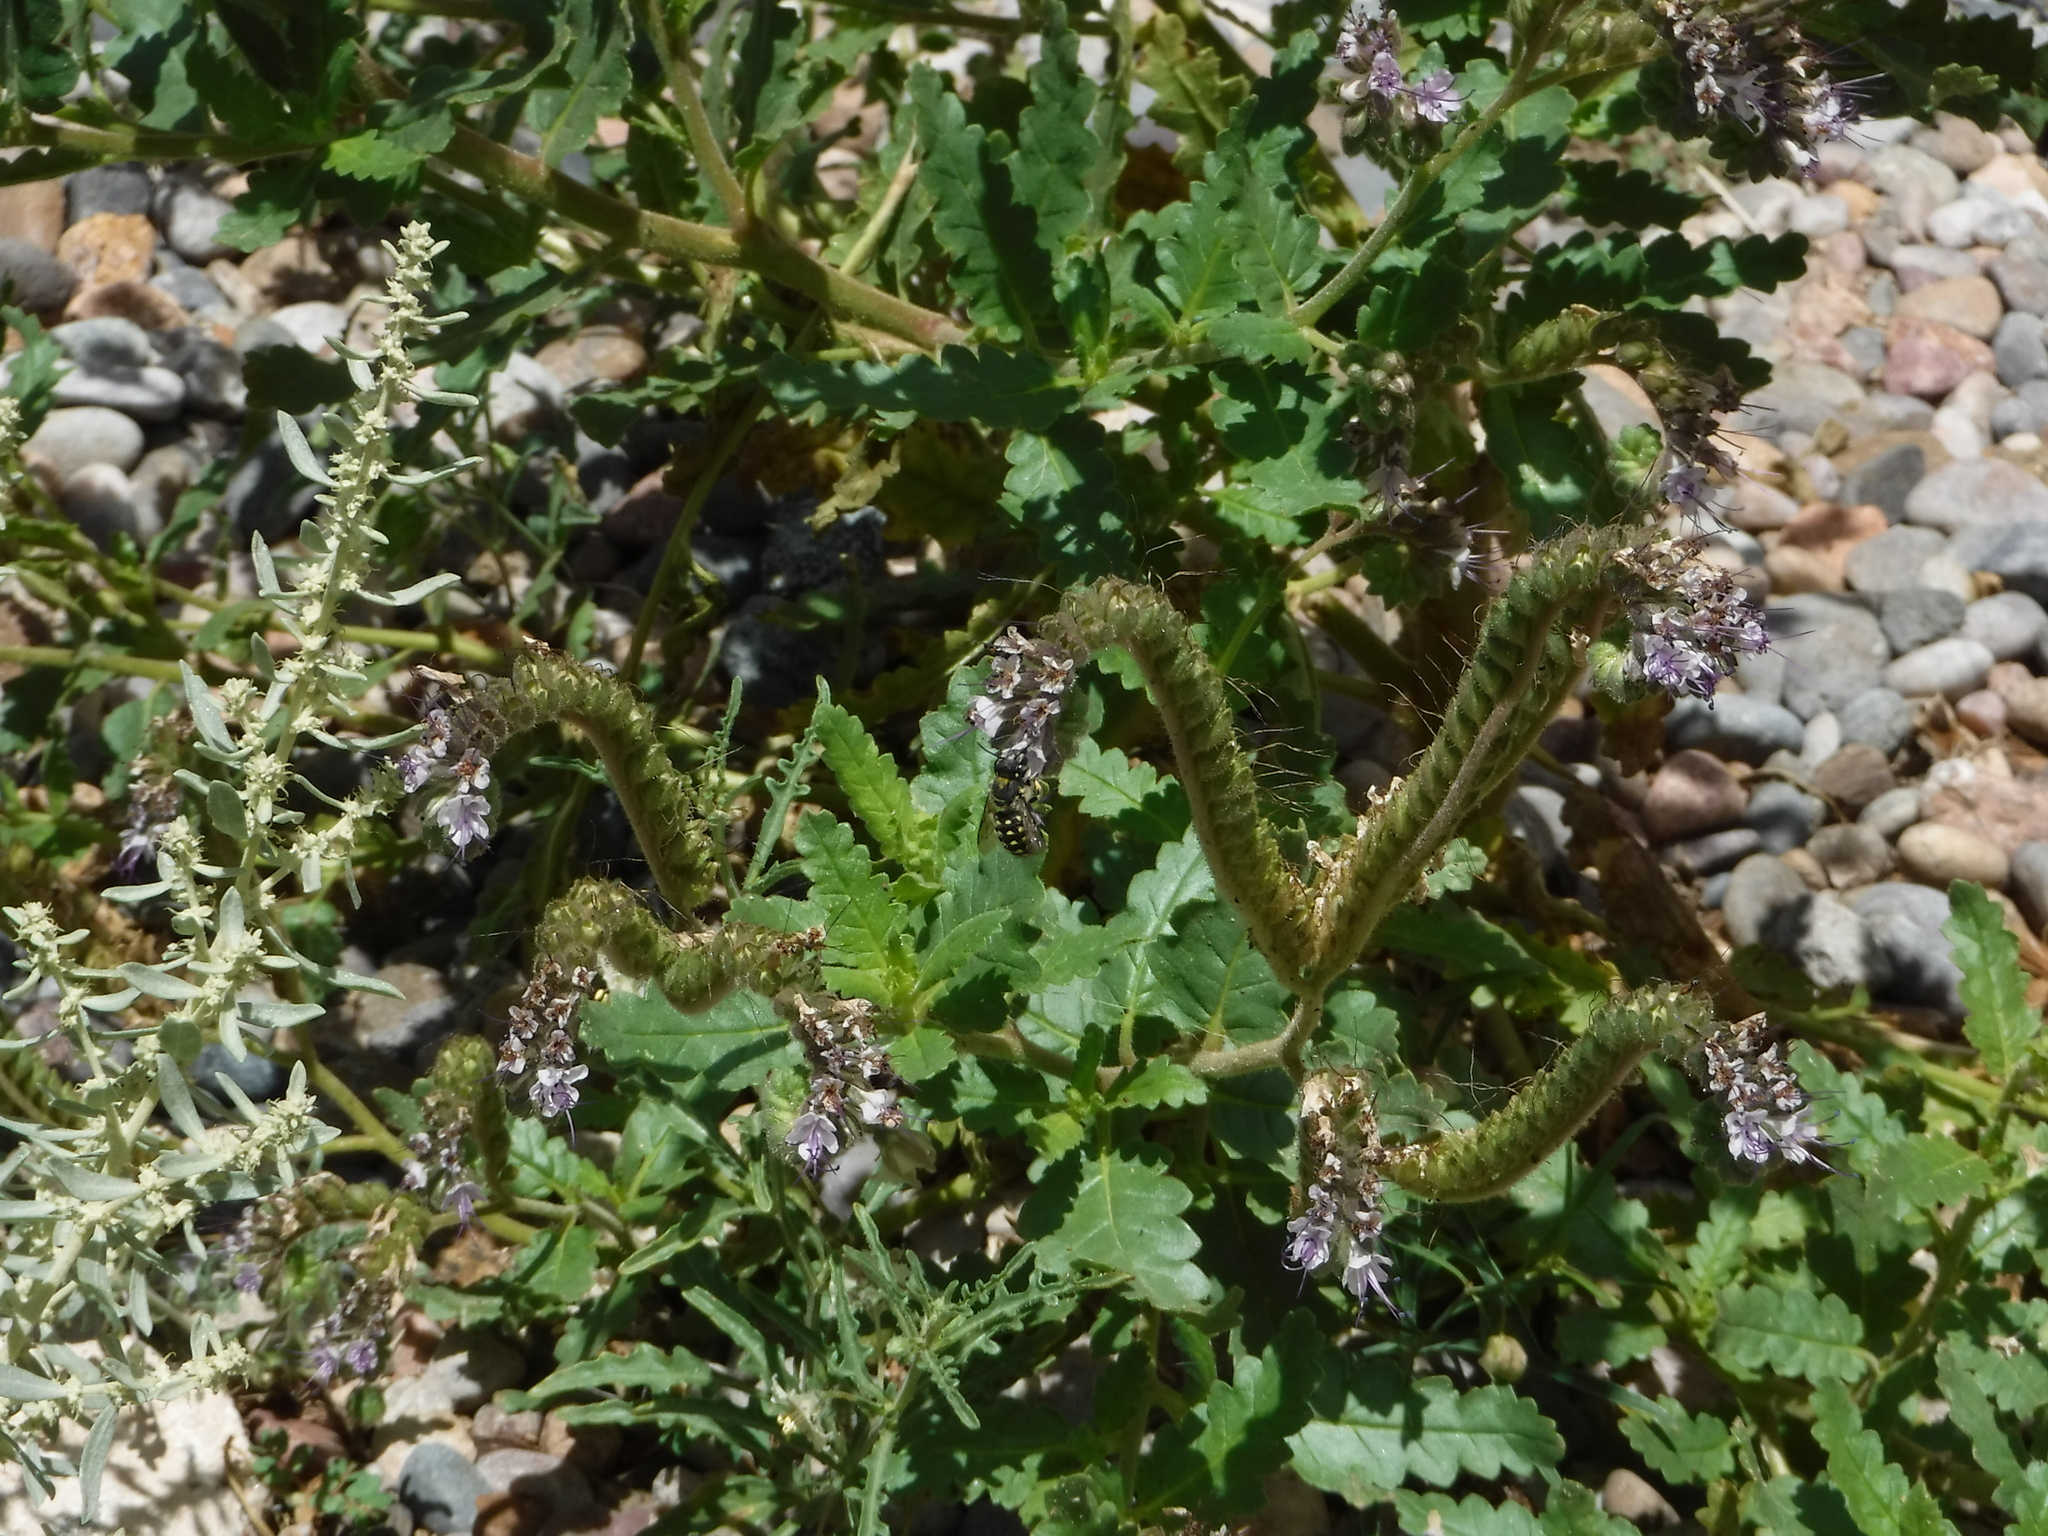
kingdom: Animalia
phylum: Arthropoda
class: Insecta
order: Hymenoptera
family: Megachilidae
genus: Anthidium
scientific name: Anthidium maculosum
